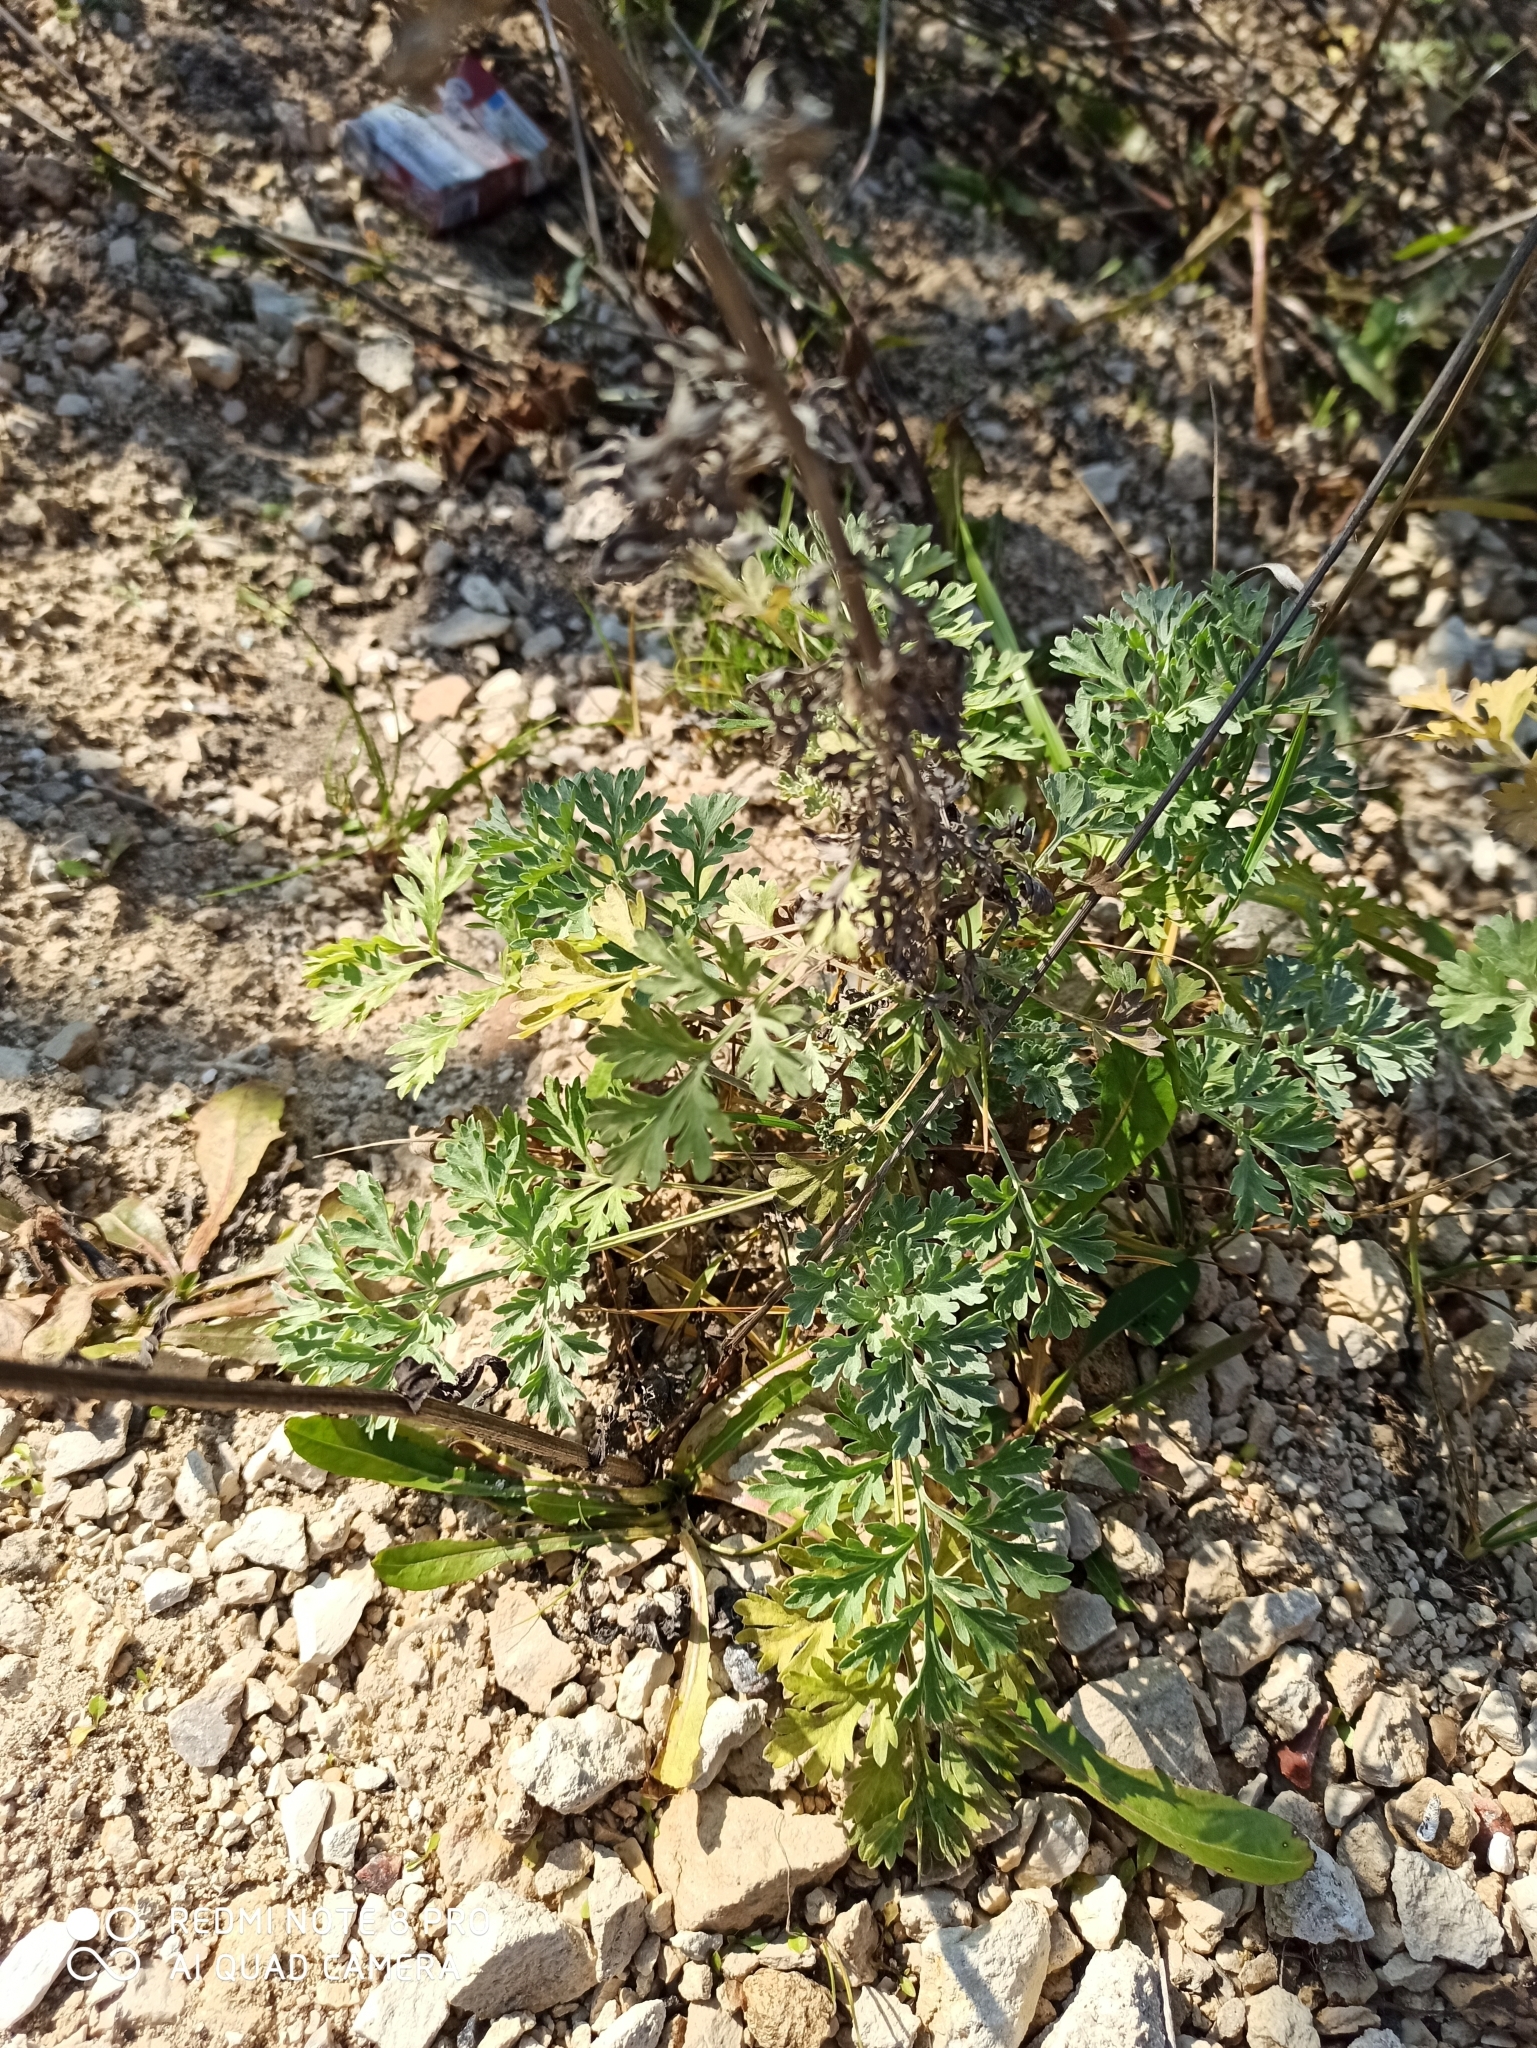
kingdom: Plantae
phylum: Tracheophyta
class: Magnoliopsida
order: Asterales
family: Asteraceae
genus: Artemisia
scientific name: Artemisia absinthium
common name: Wormwood
